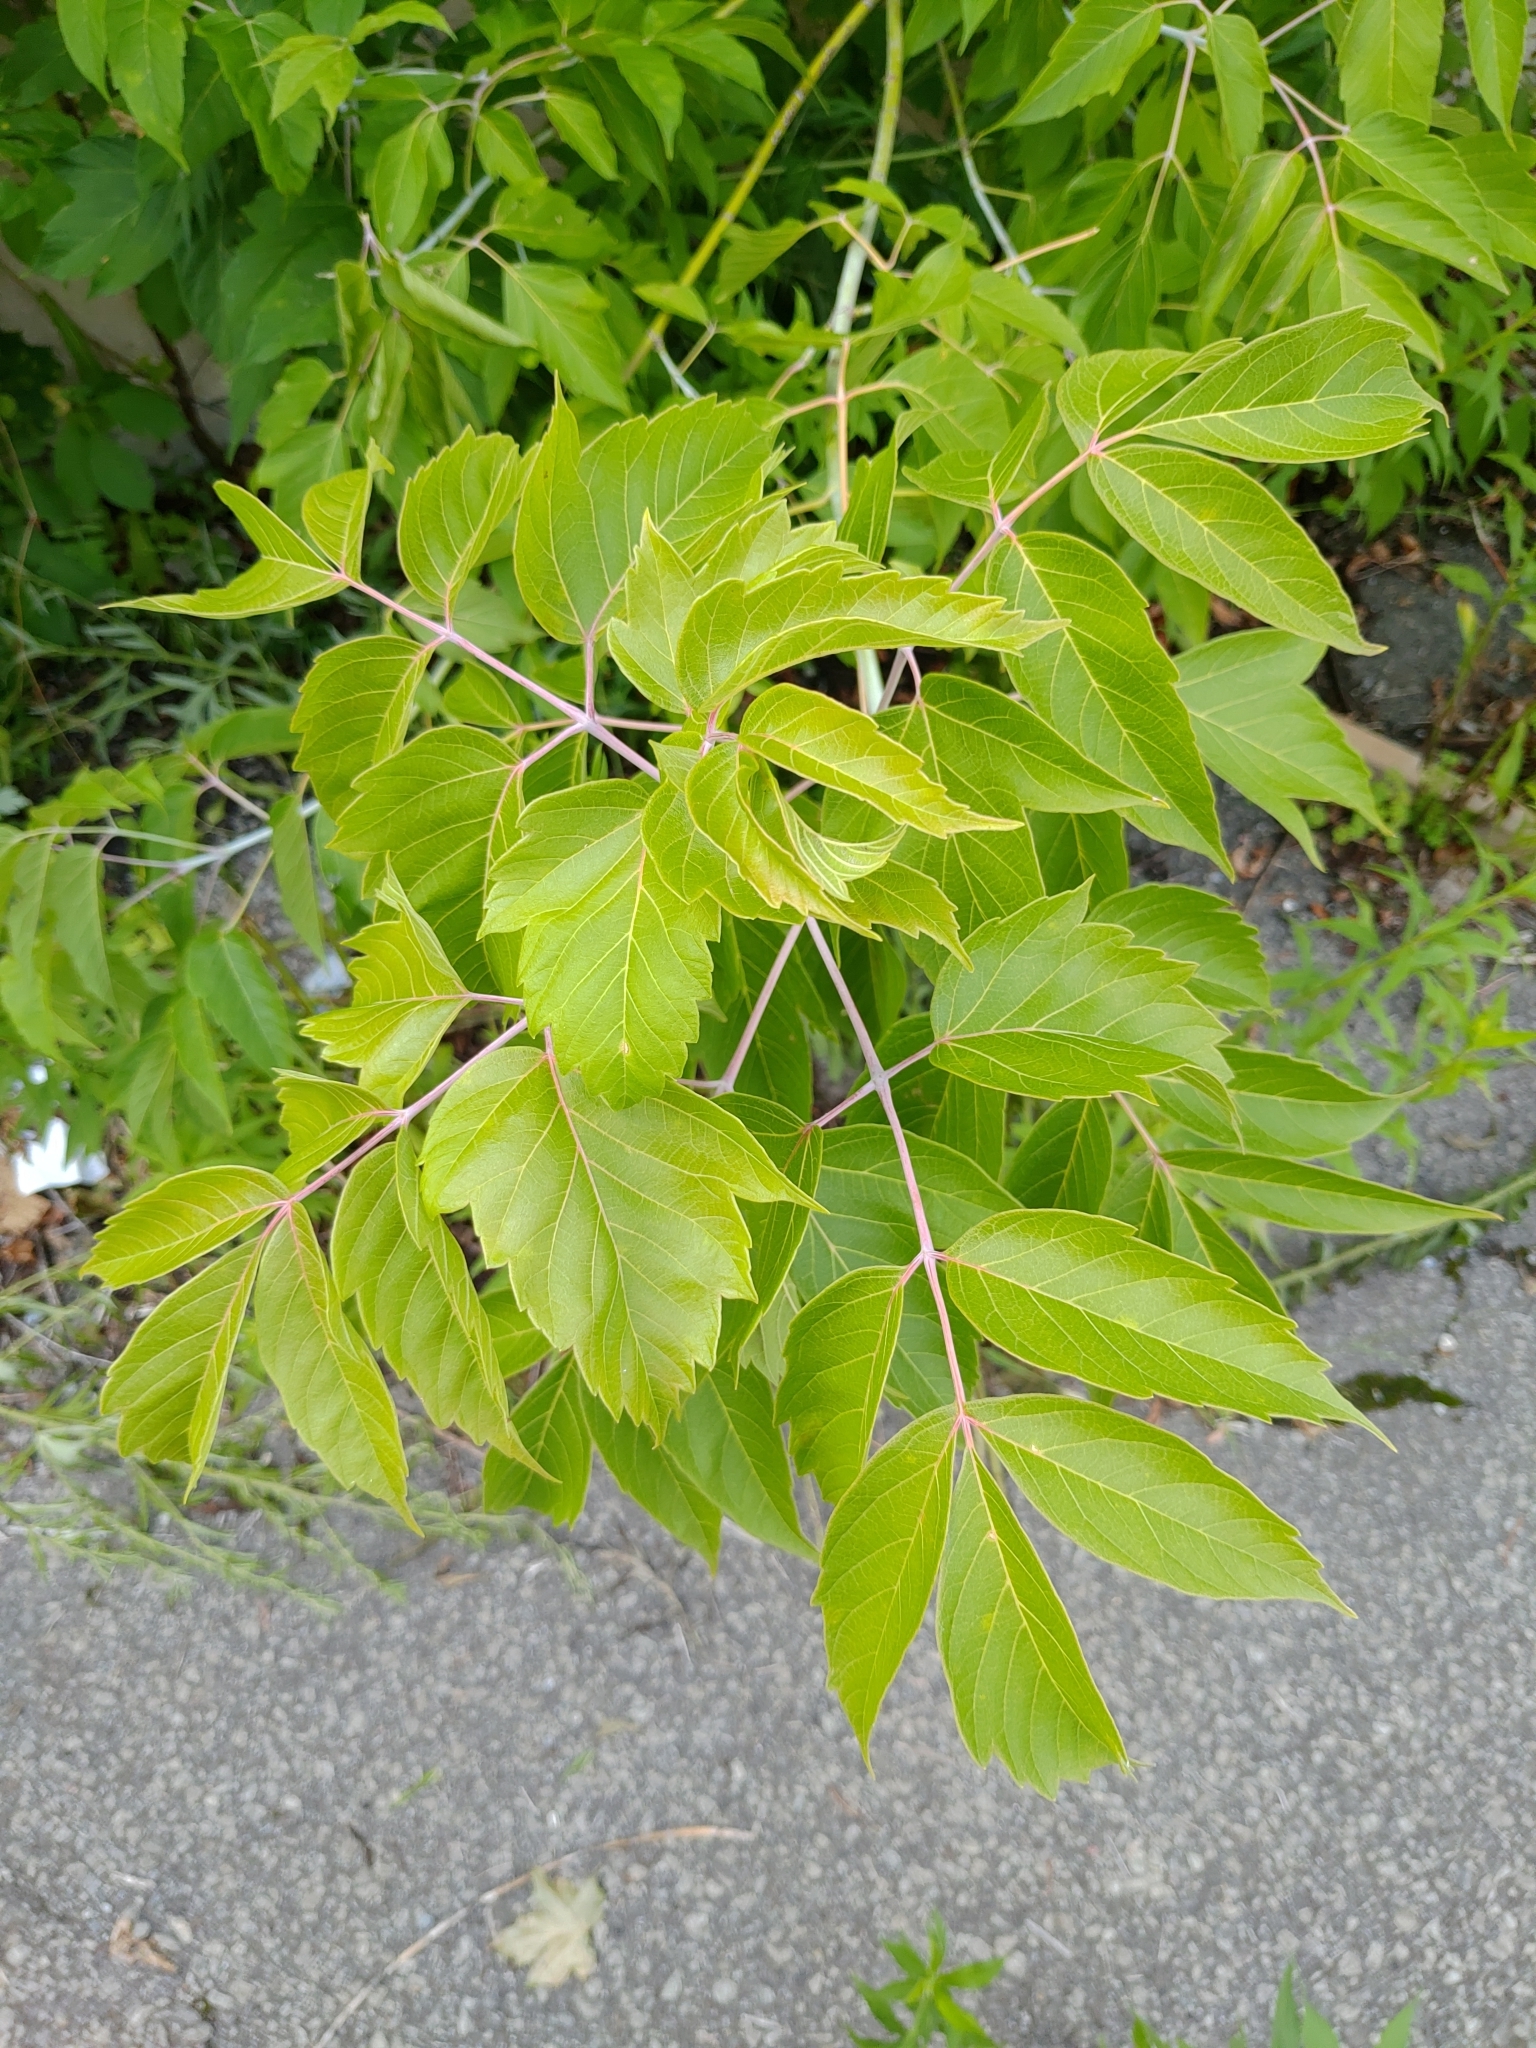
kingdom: Plantae
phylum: Tracheophyta
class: Magnoliopsida
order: Sapindales
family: Sapindaceae
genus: Acer
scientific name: Acer negundo
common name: Ashleaf maple
